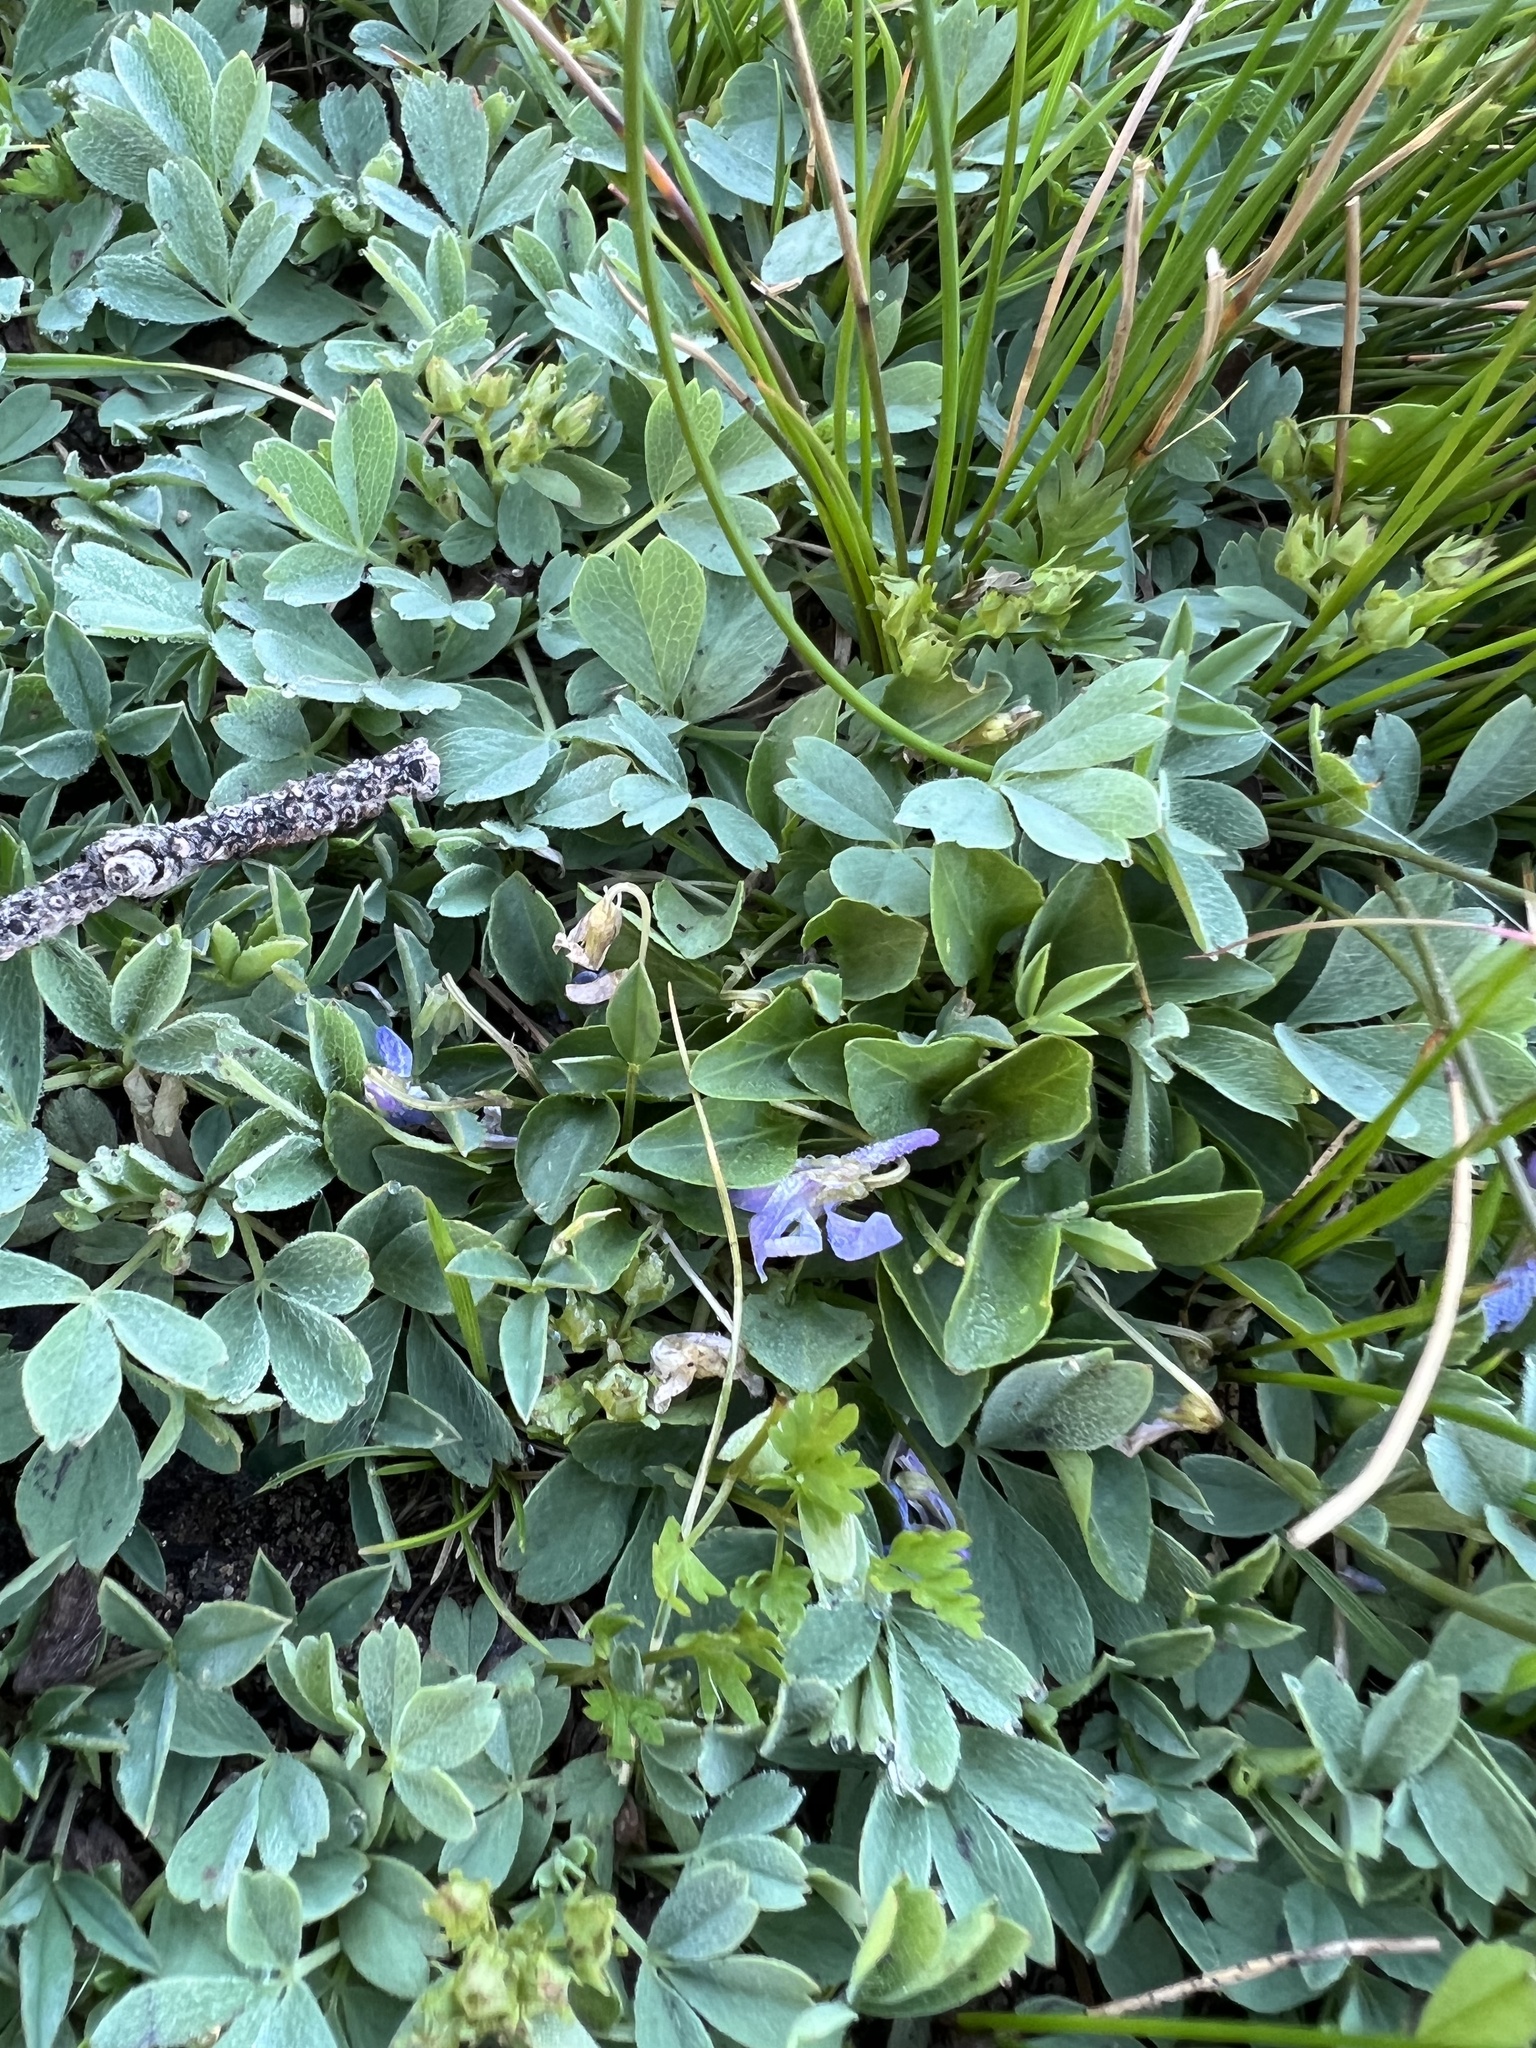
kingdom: Plantae
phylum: Tracheophyta
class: Magnoliopsida
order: Malpighiales
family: Violaceae
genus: Viola
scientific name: Viola adunca
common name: Sand violet
